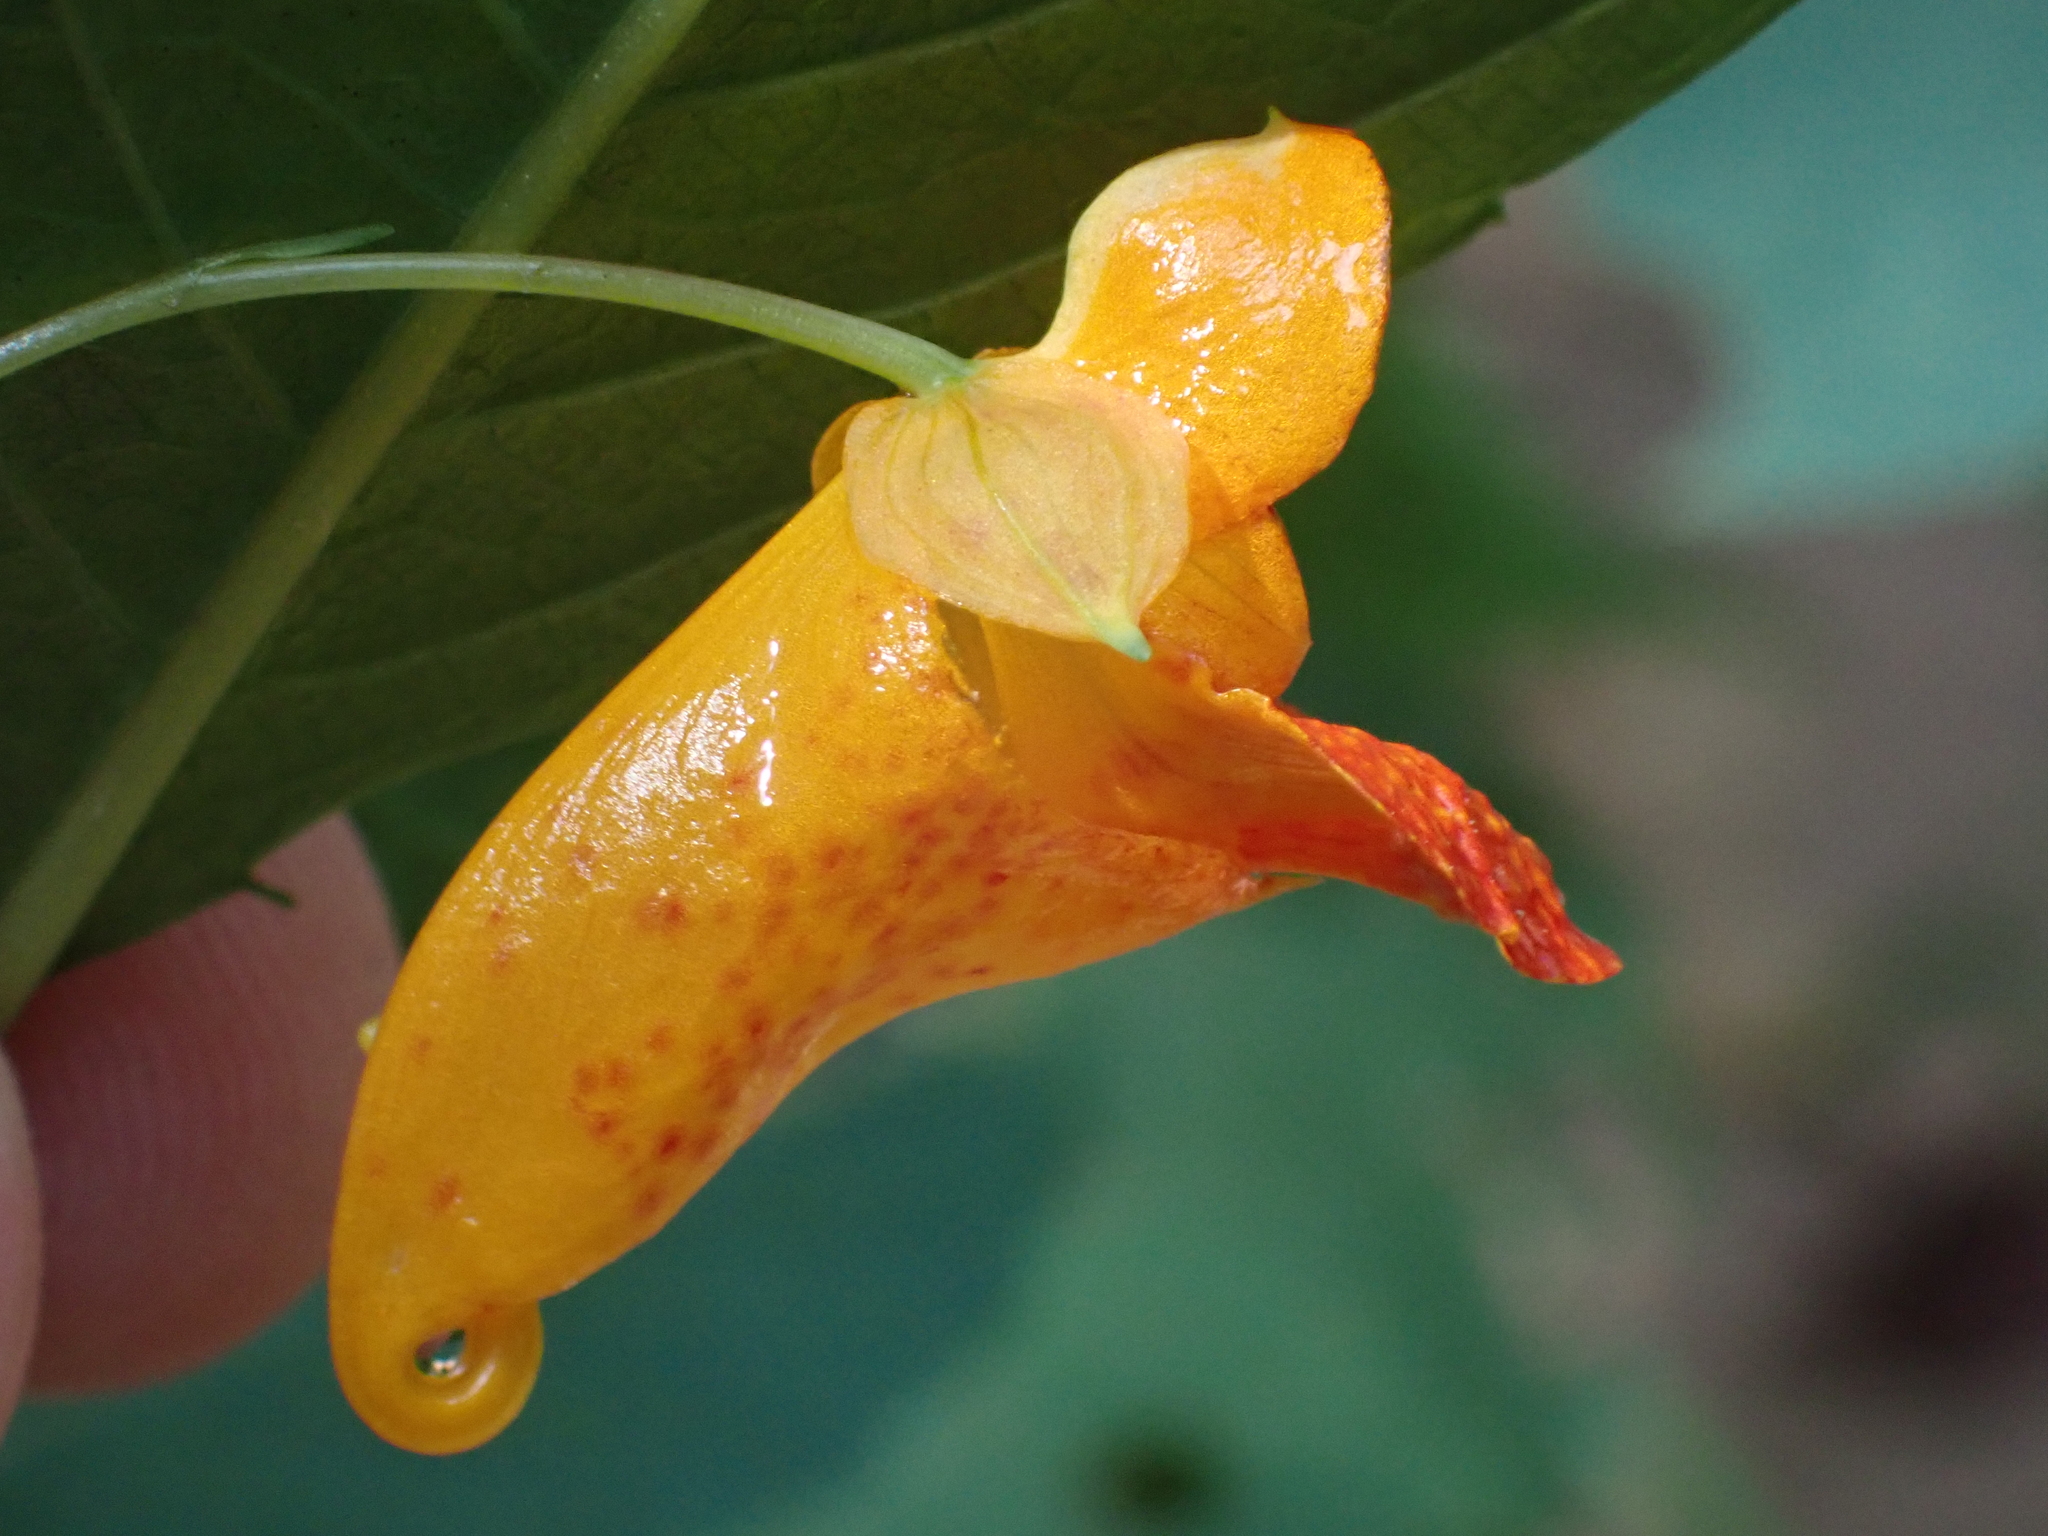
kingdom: Plantae
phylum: Tracheophyta
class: Magnoliopsida
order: Ericales
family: Balsaminaceae
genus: Impatiens
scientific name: Impatiens capensis
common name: Orange balsam
